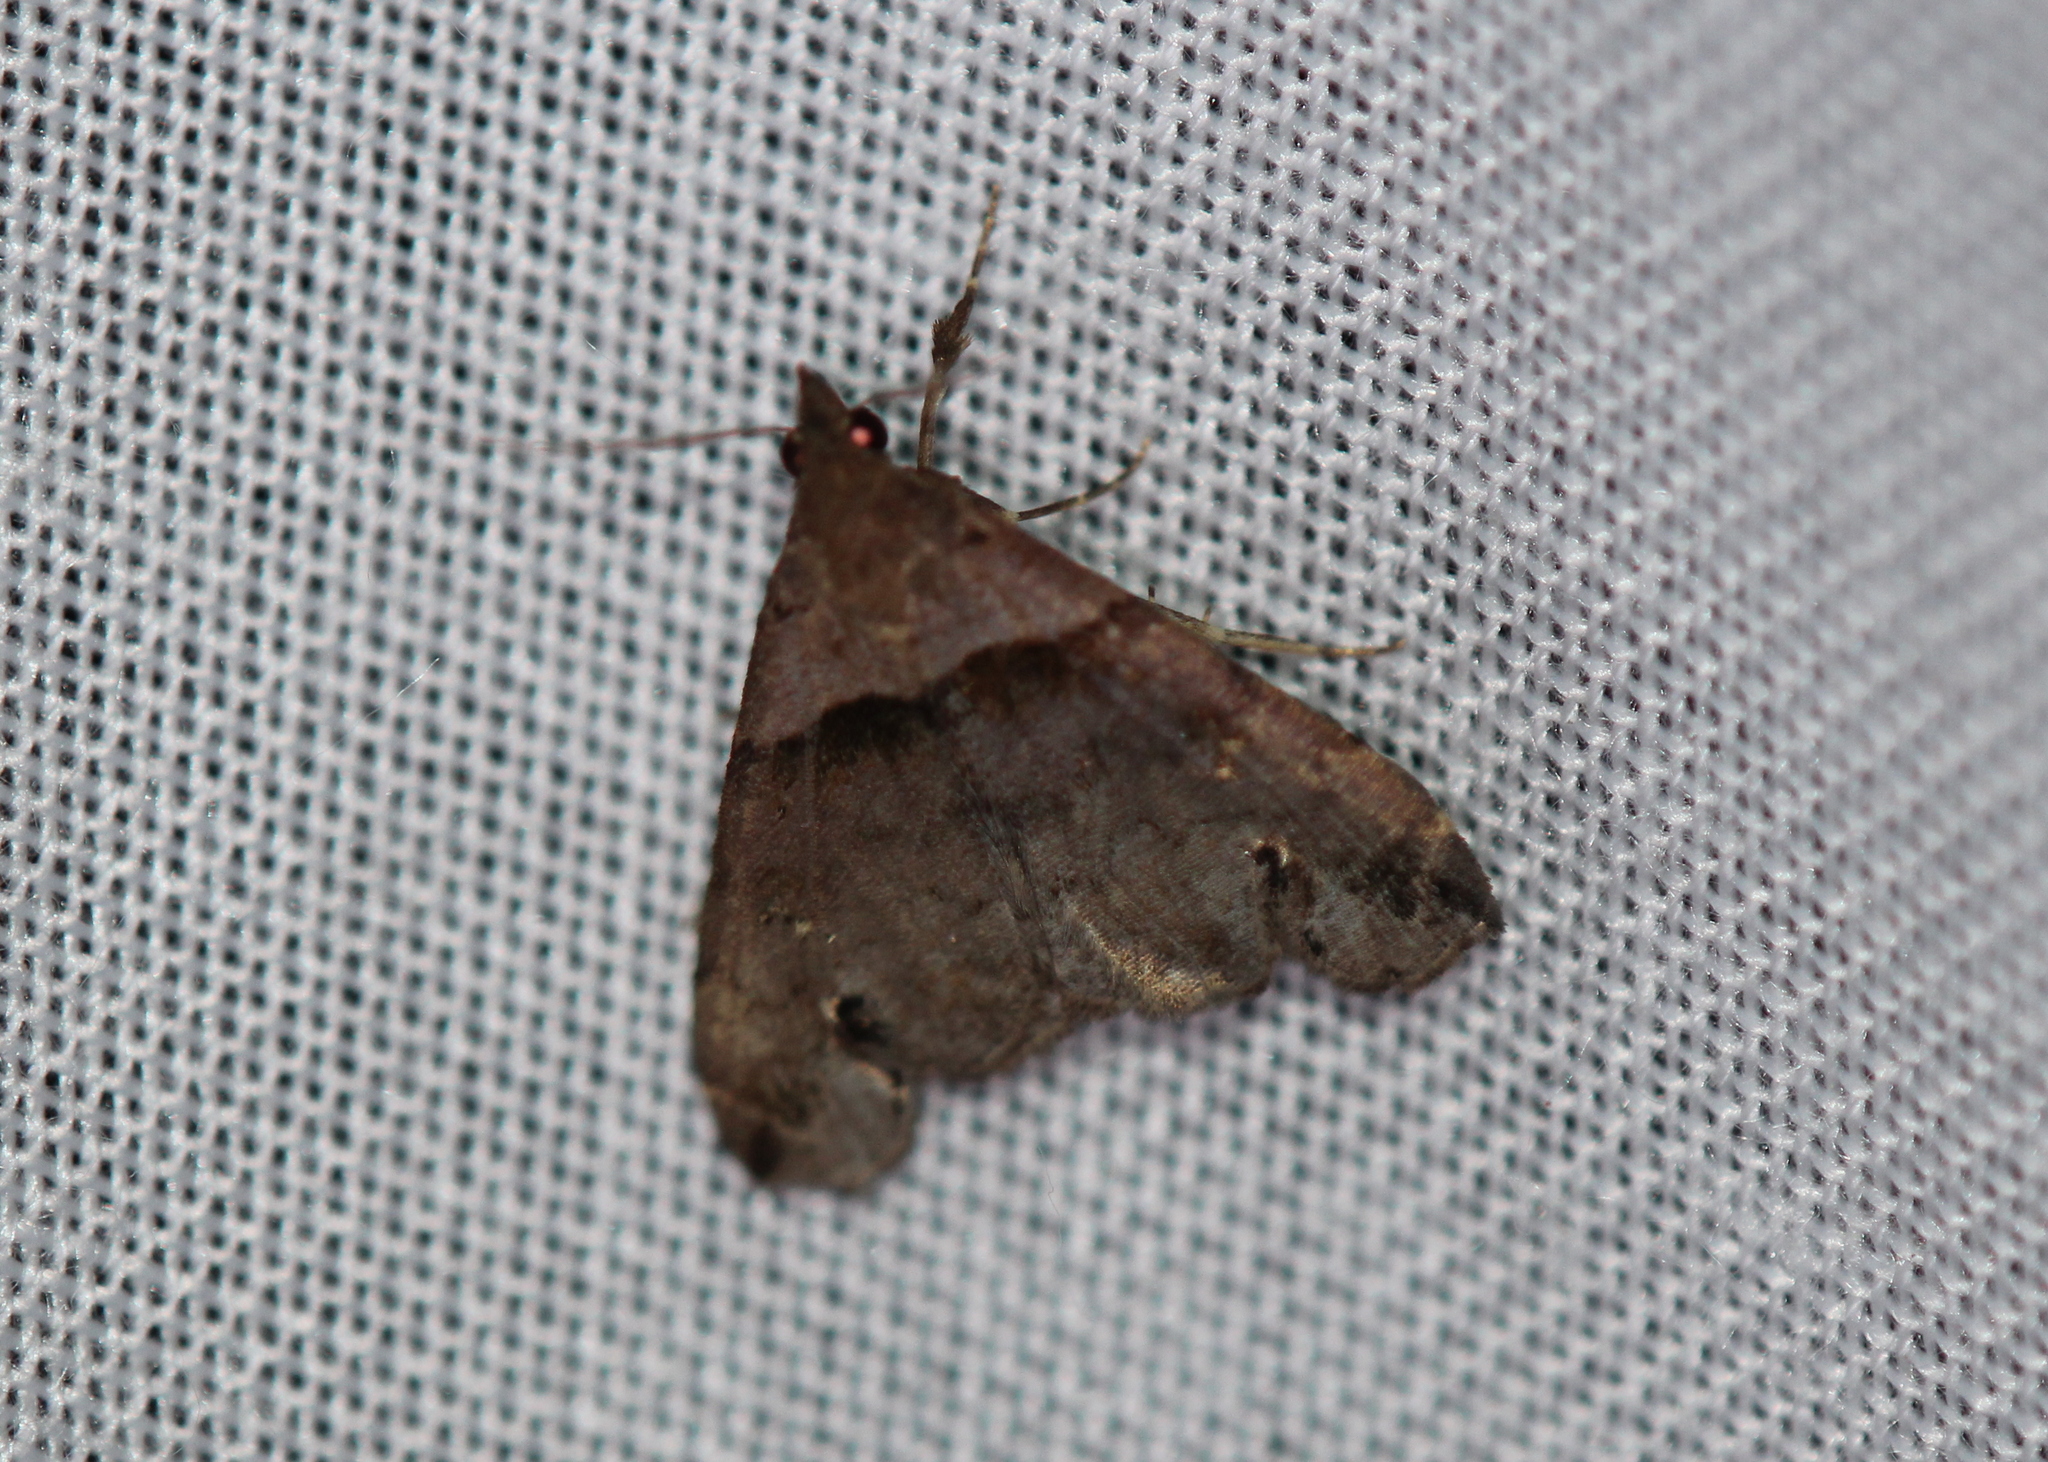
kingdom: Animalia
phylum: Arthropoda
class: Insecta
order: Lepidoptera
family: Erebidae
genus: Lascoria
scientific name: Lascoria ambigualis
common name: Ambiguous moth
